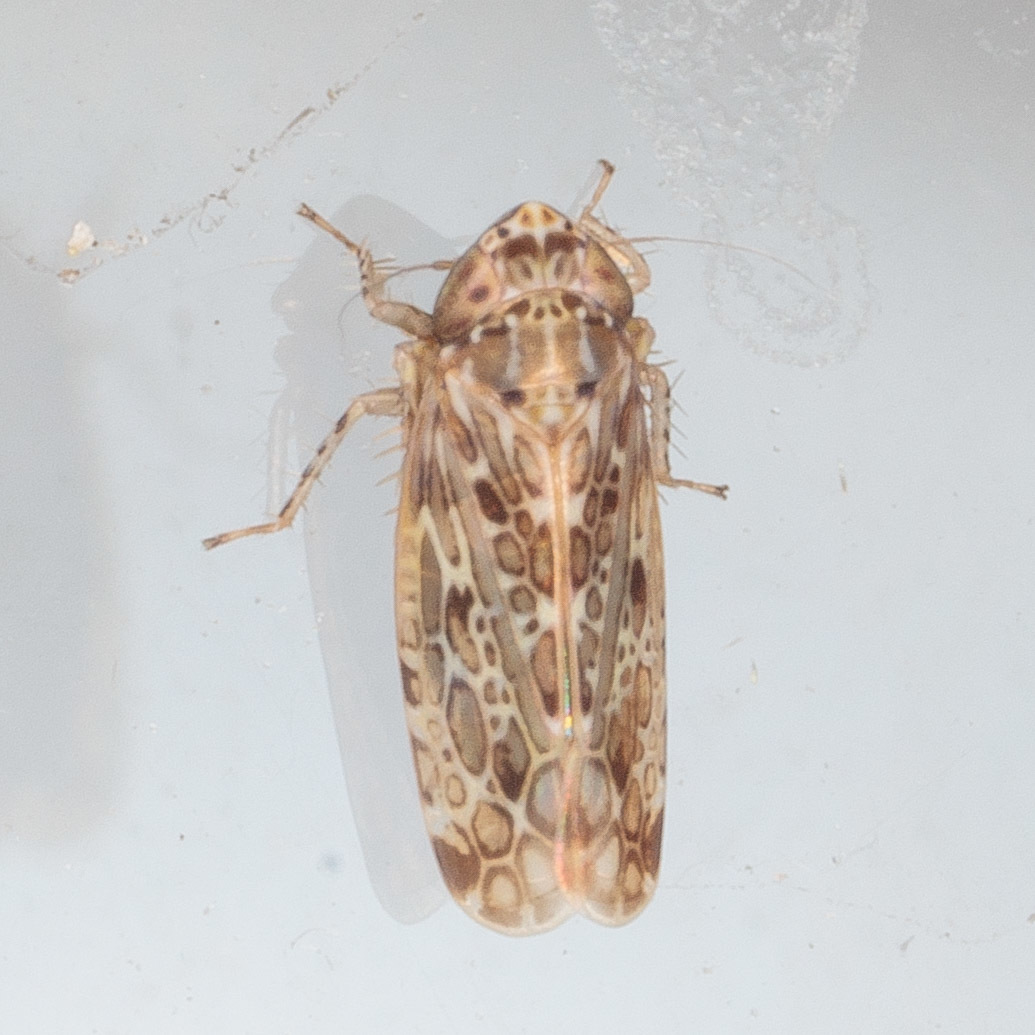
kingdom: Animalia
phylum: Arthropoda
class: Insecta
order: Hemiptera
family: Cicadellidae
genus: Polyamia
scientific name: Polyamia weedi
